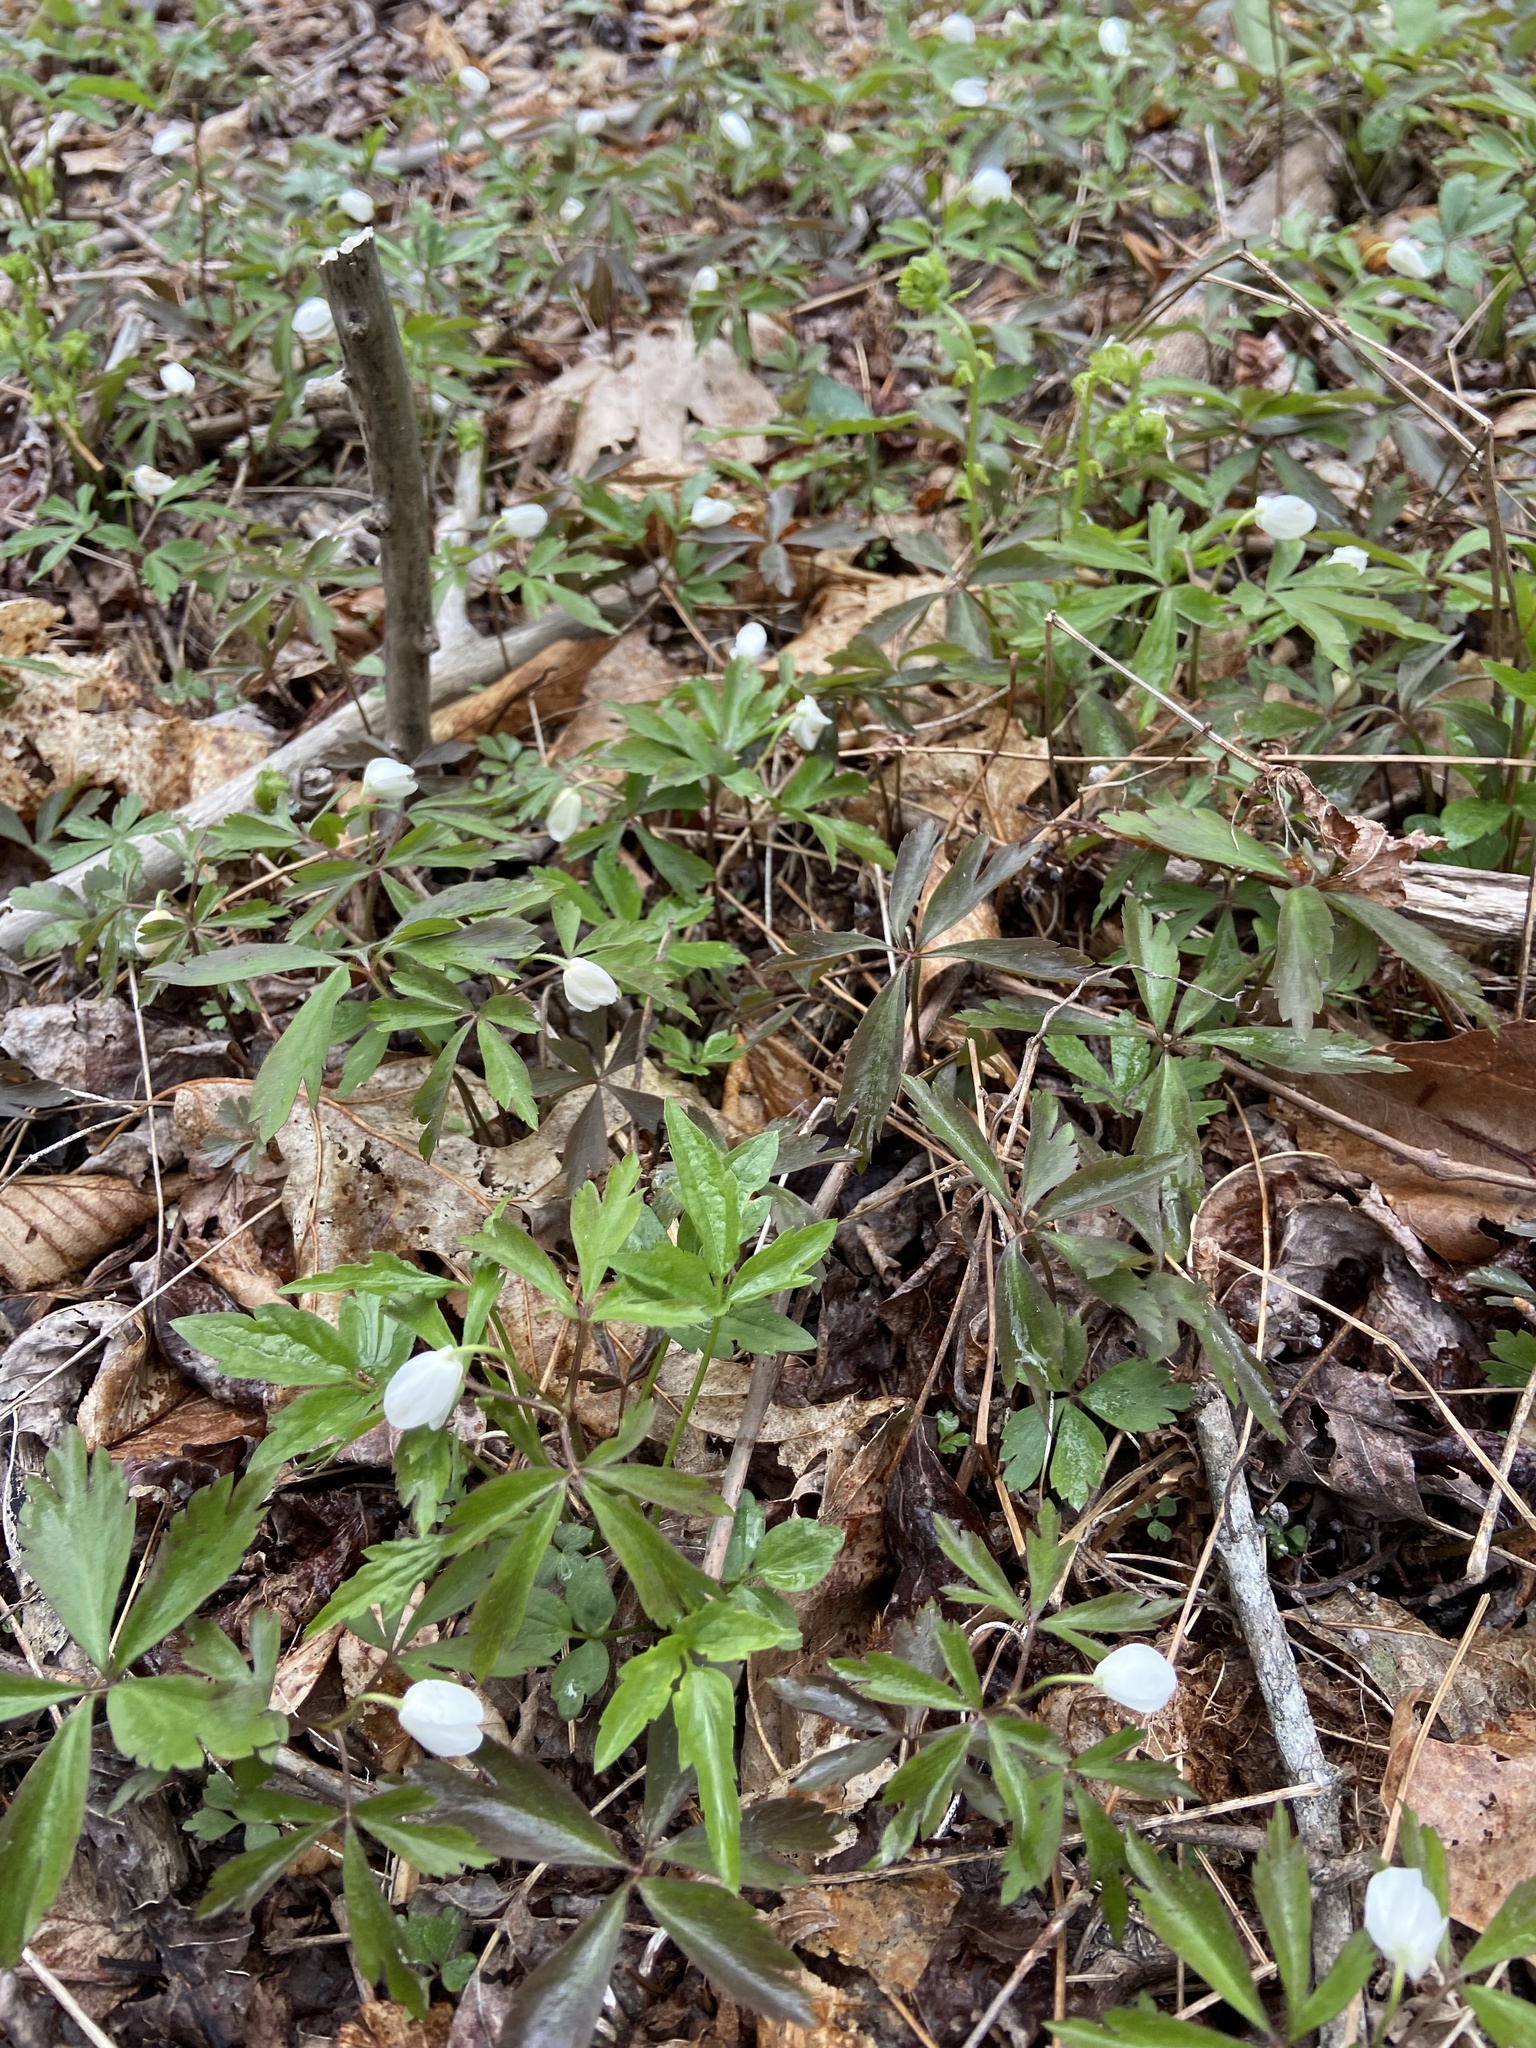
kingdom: Plantae
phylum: Tracheophyta
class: Magnoliopsida
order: Ranunculales
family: Ranunculaceae
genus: Anemone
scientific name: Anemone quinquefolia
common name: Wood anemone
